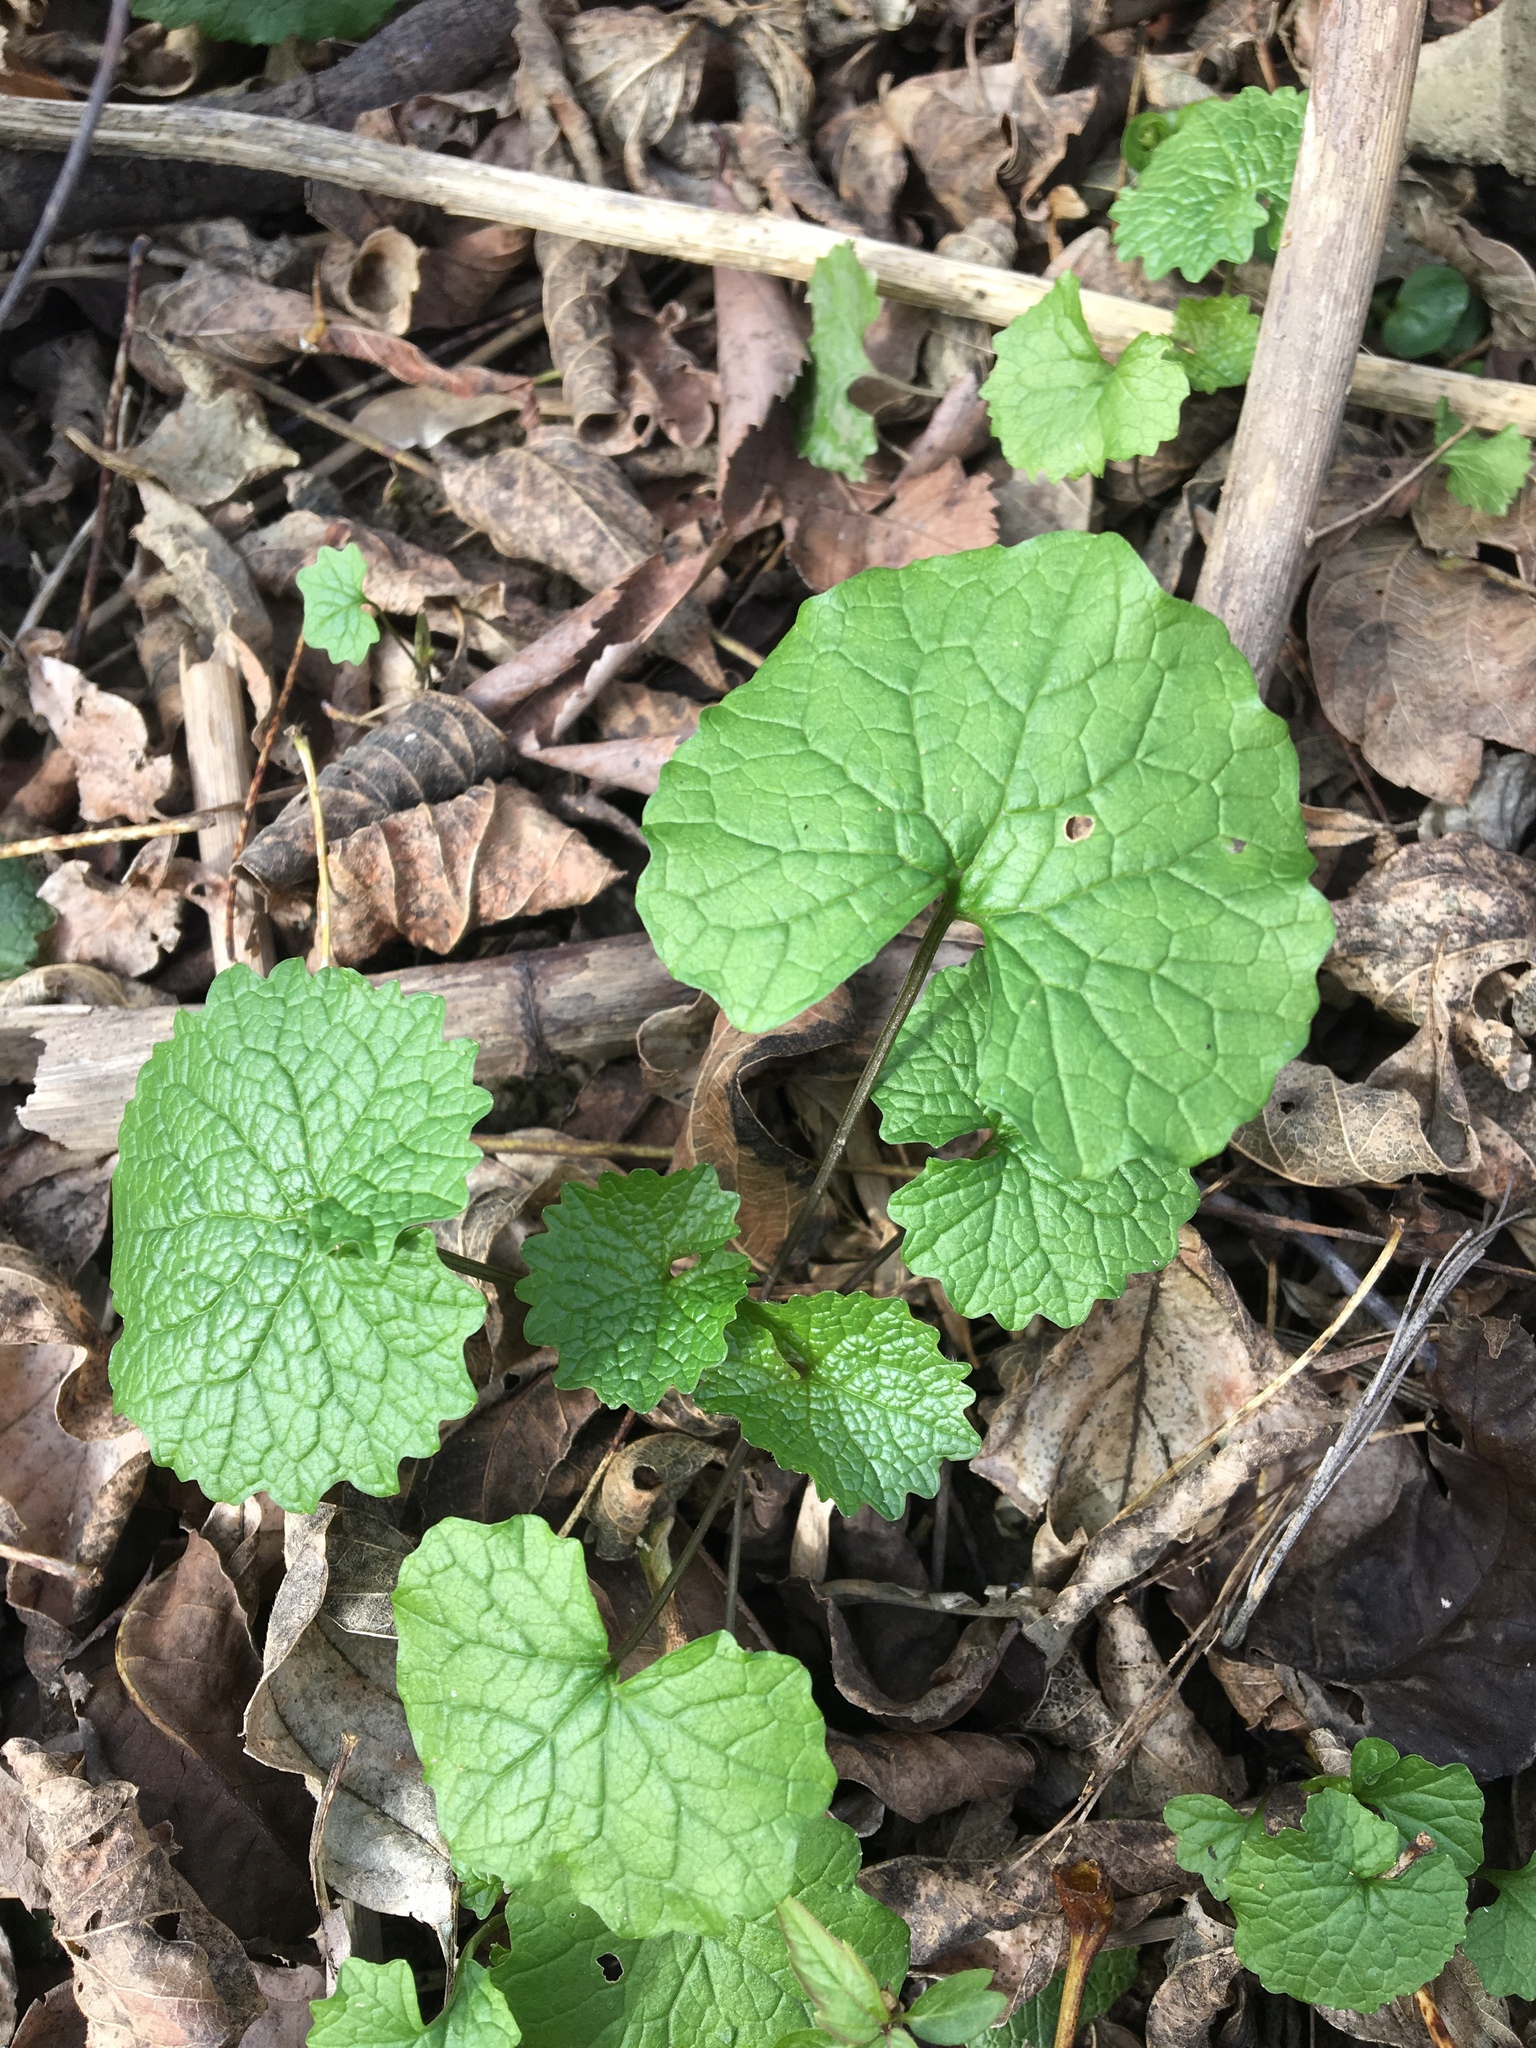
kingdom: Plantae
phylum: Tracheophyta
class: Magnoliopsida
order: Brassicales
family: Brassicaceae
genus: Alliaria
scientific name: Alliaria petiolata
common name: Garlic mustard
